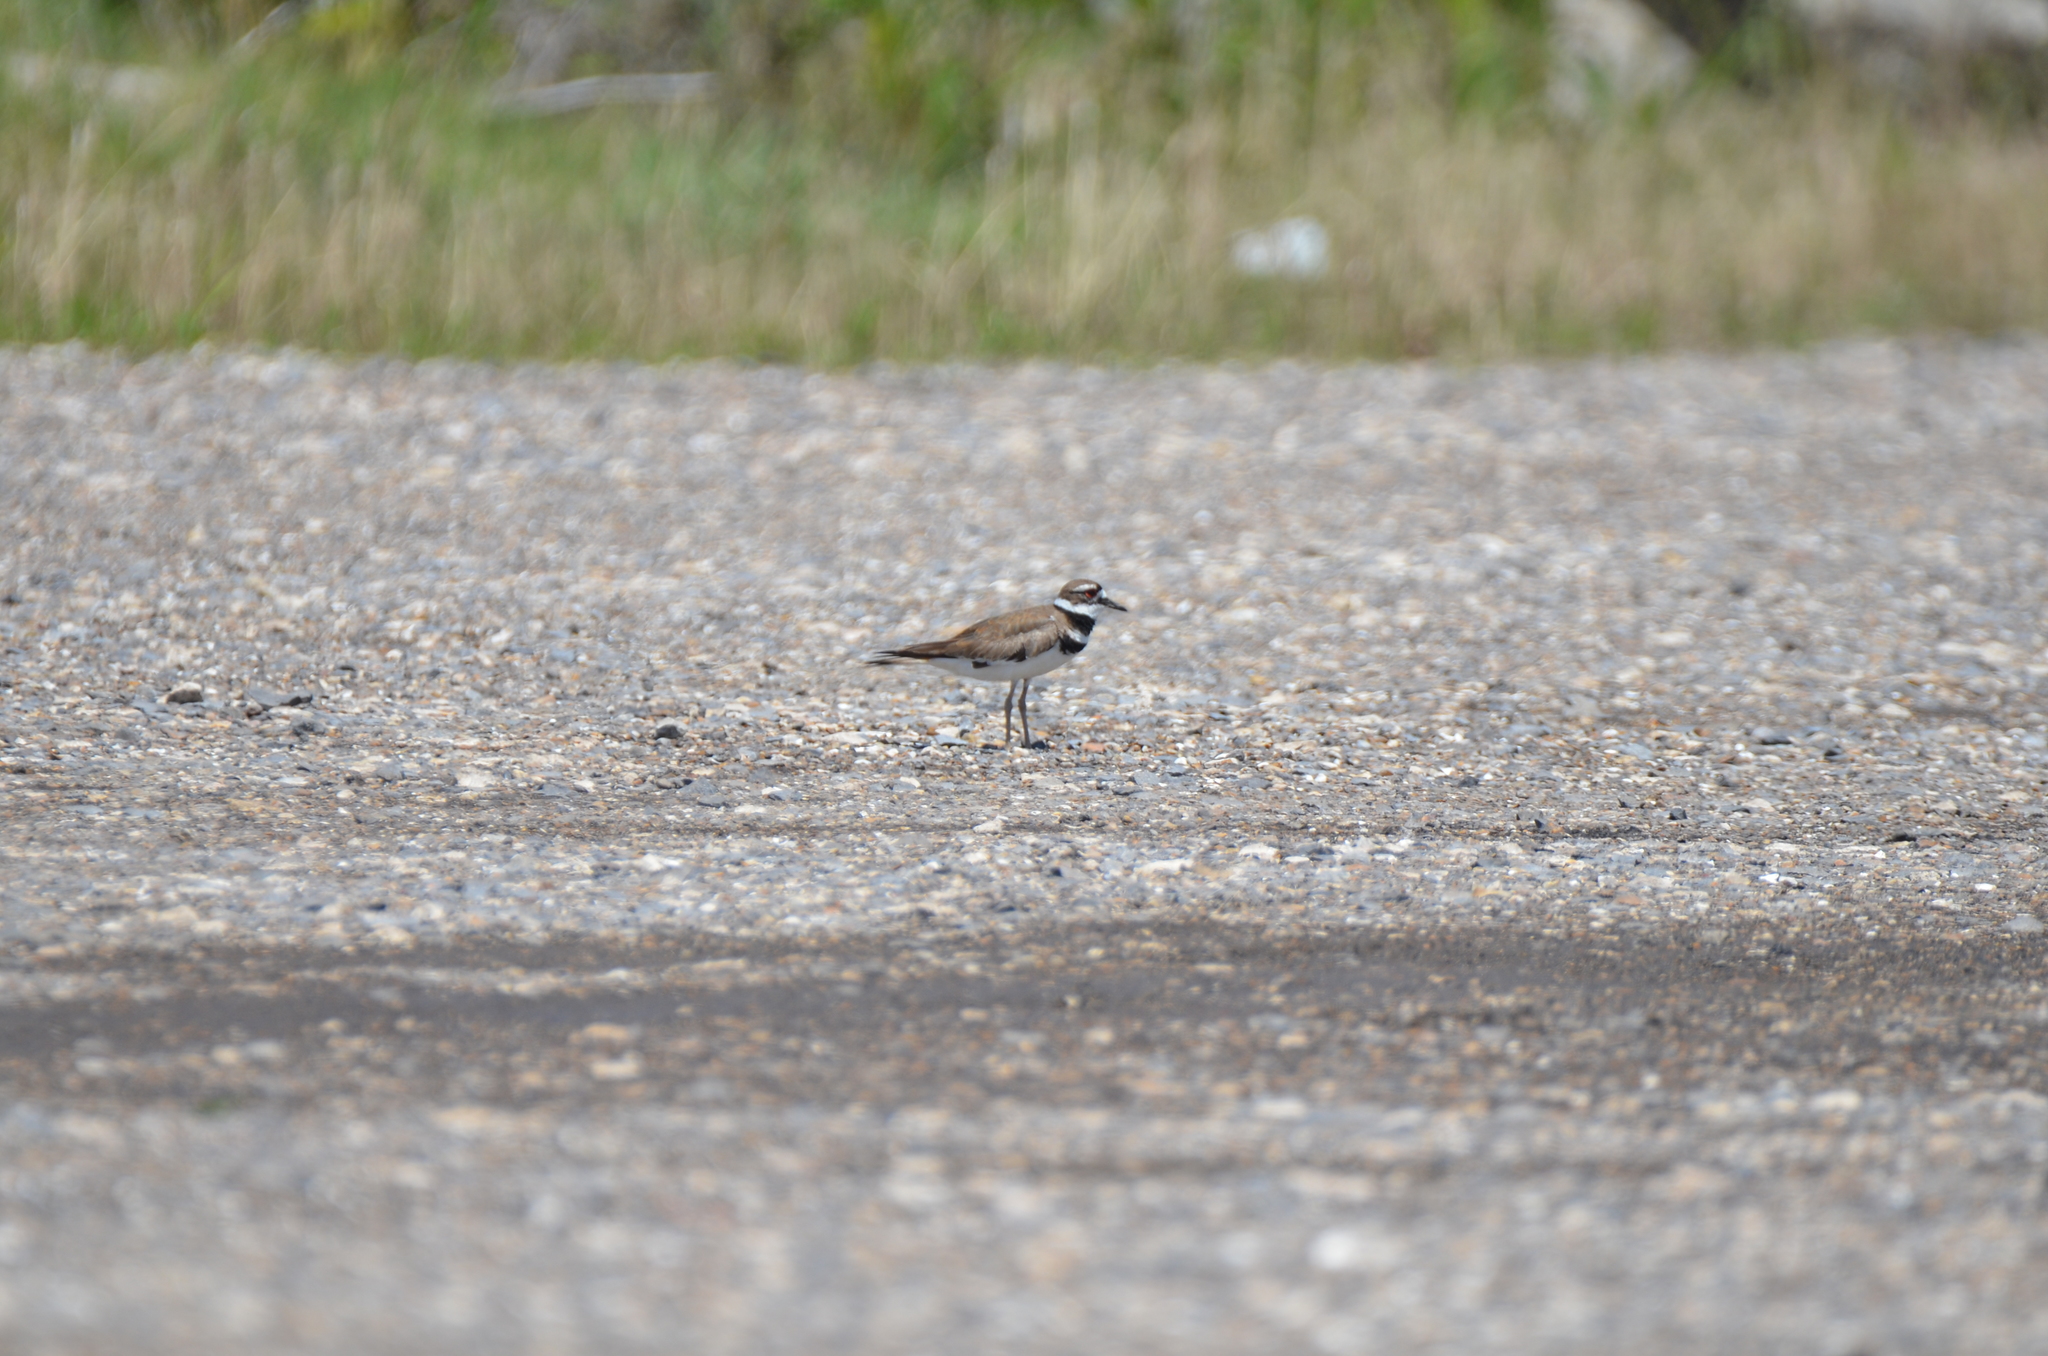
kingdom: Animalia
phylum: Chordata
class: Aves
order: Charadriiformes
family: Charadriidae
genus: Charadrius
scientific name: Charadrius vociferus
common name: Killdeer
